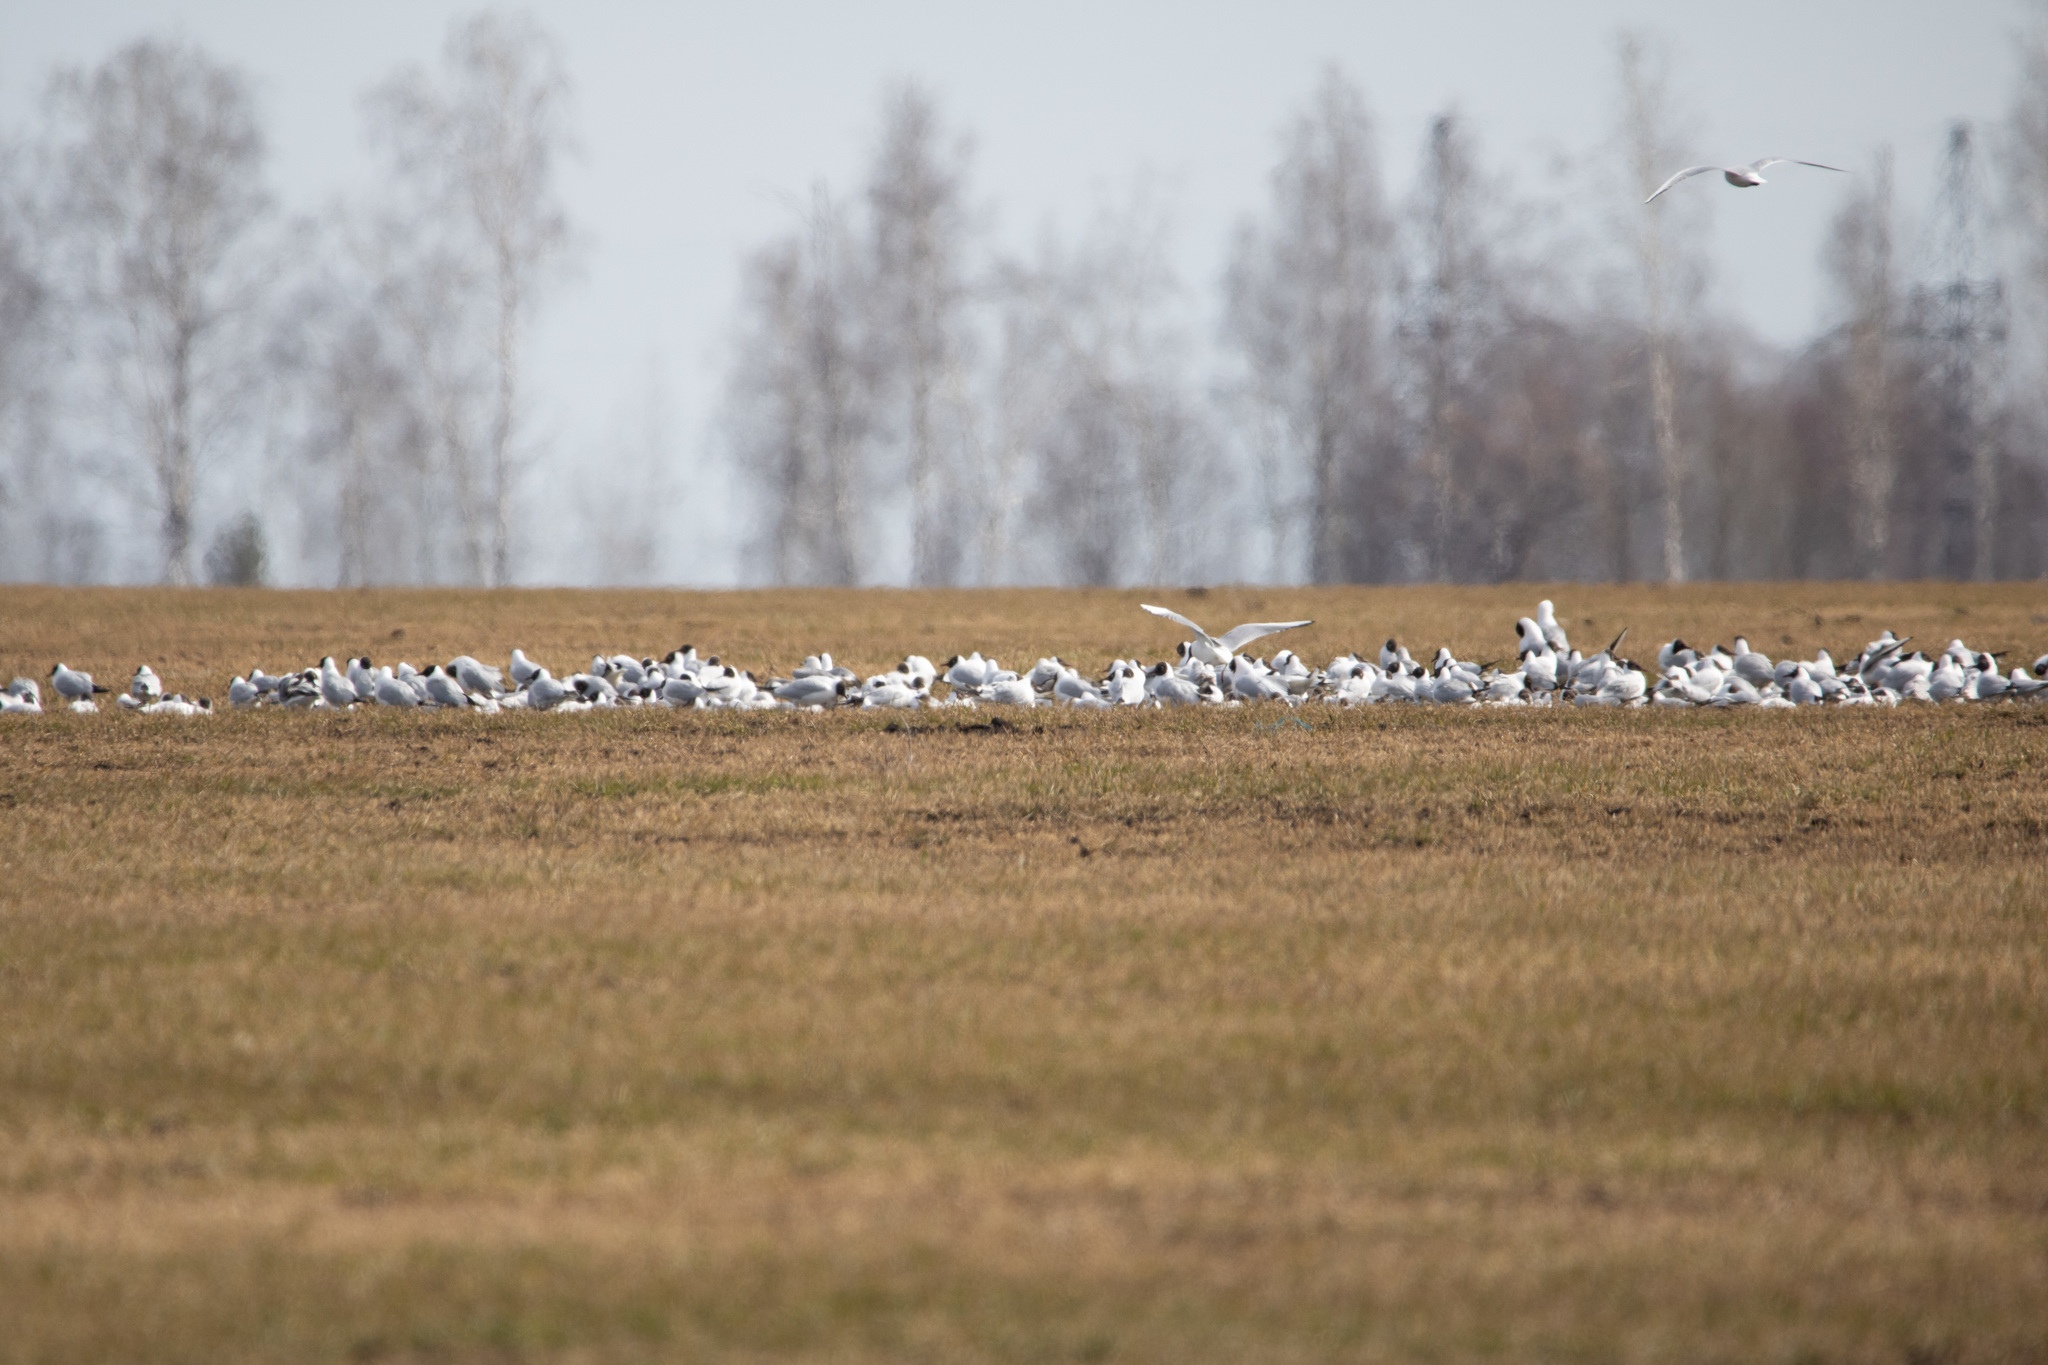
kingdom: Animalia
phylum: Chordata
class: Aves
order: Charadriiformes
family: Laridae
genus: Chroicocephalus
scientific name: Chroicocephalus ridibundus
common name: Black-headed gull
